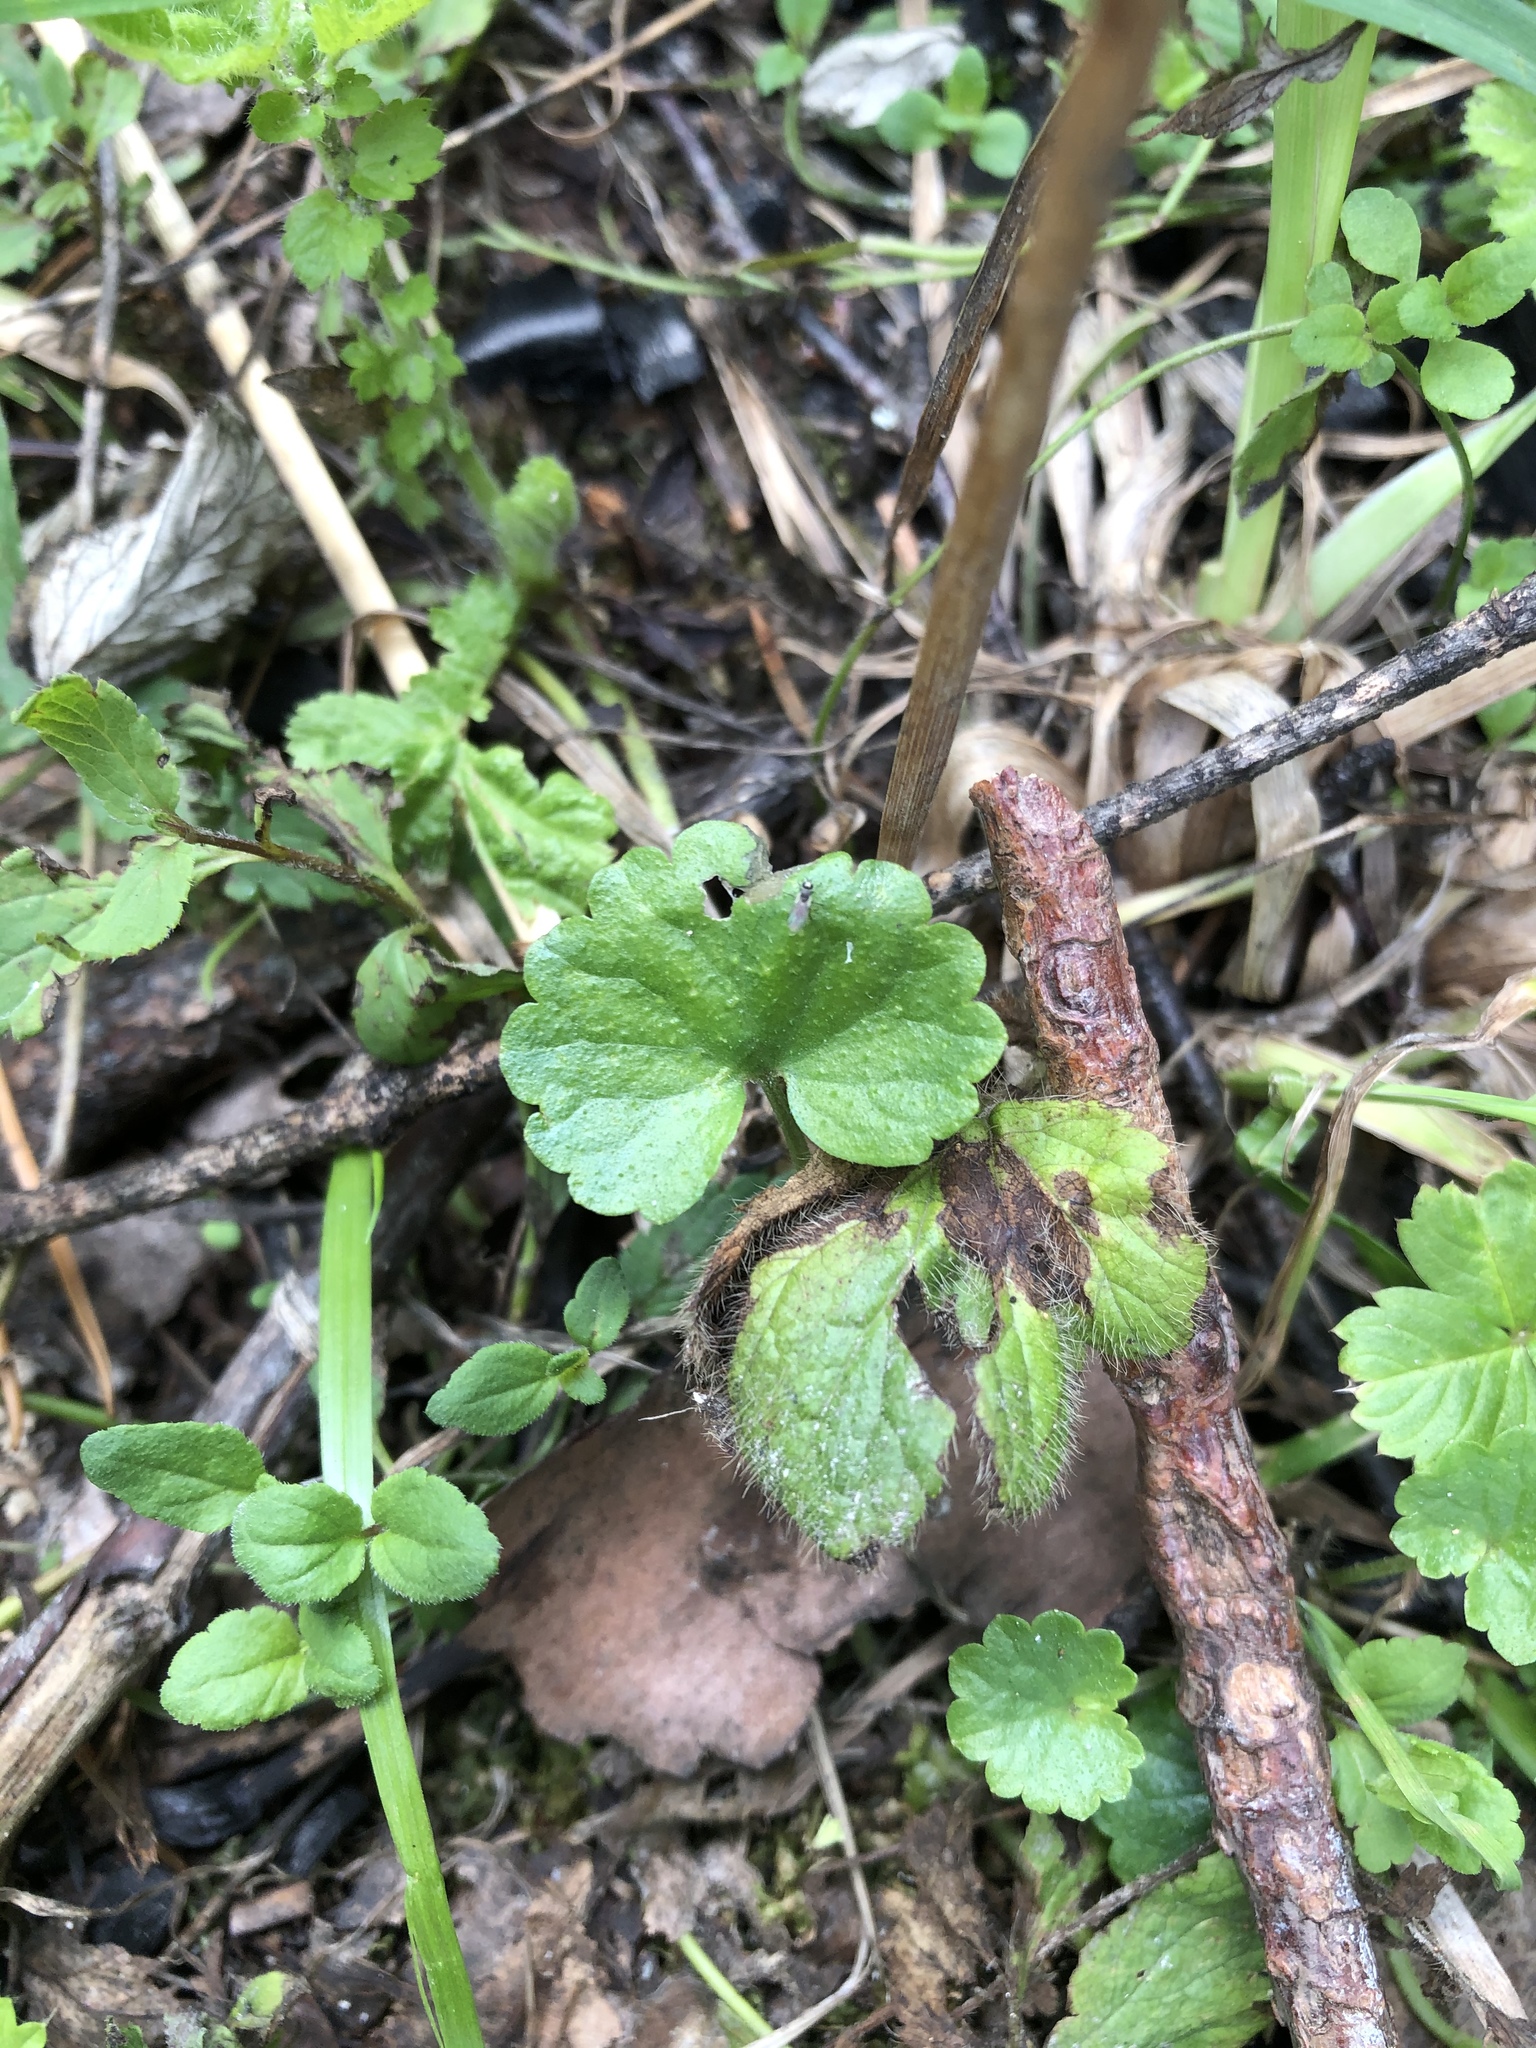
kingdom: Plantae
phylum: Tracheophyta
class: Magnoliopsida
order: Lamiales
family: Lamiaceae
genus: Glechoma
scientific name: Glechoma hederacea
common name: Ground ivy
